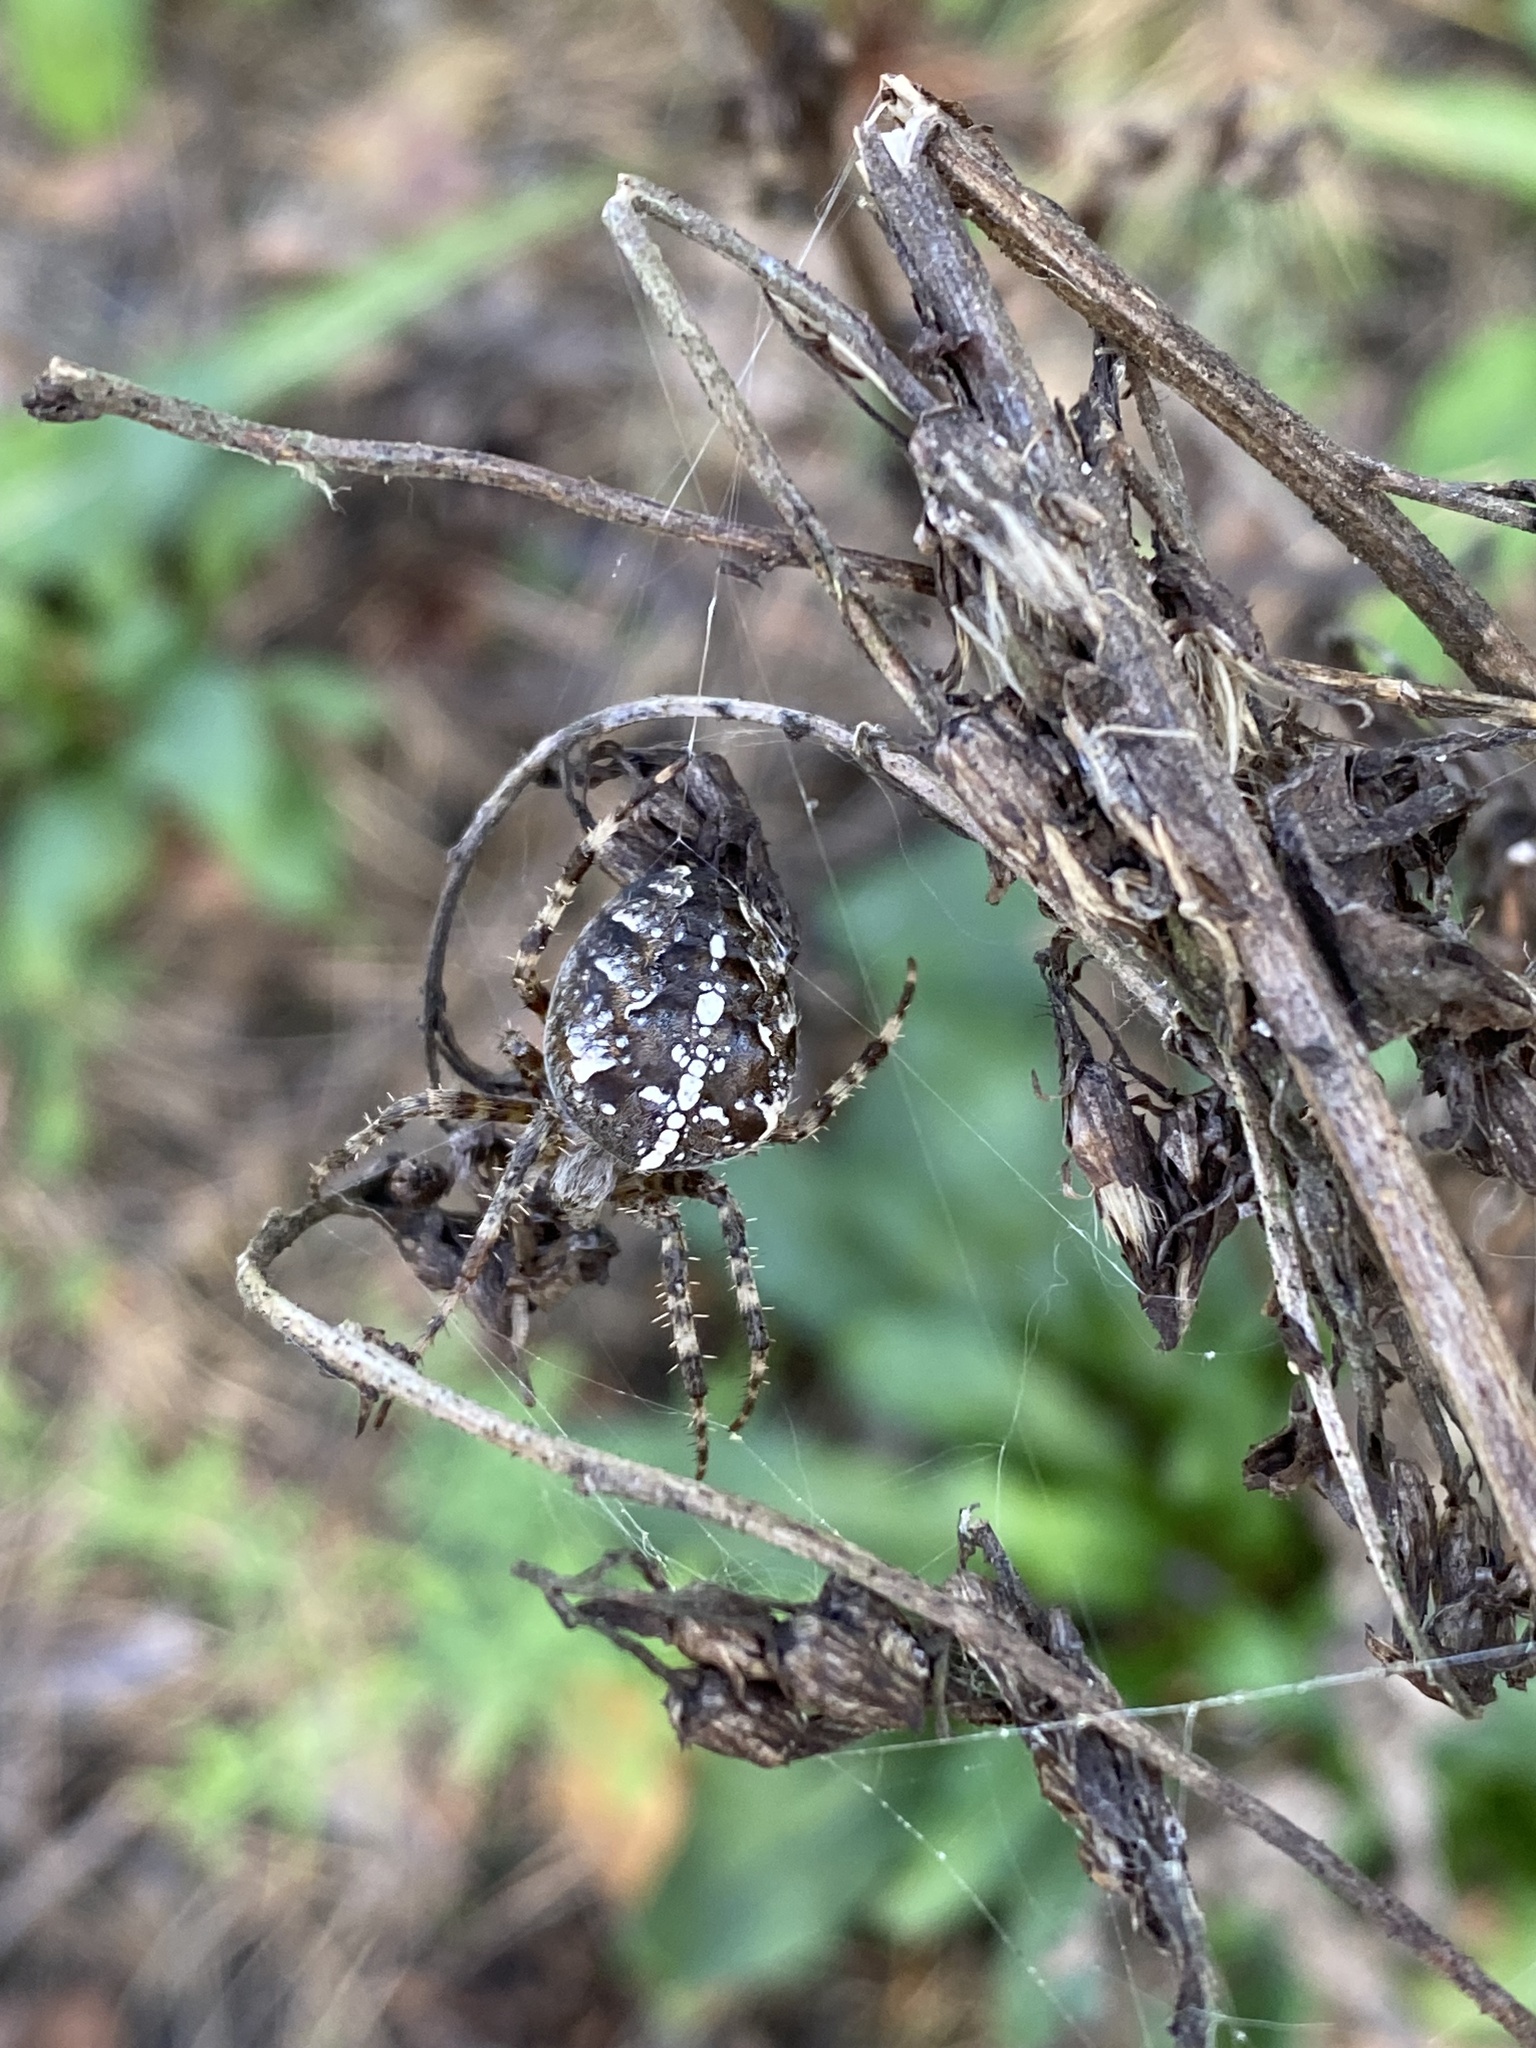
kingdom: Animalia
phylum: Arthropoda
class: Arachnida
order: Araneae
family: Araneidae
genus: Araneus
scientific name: Araneus diadematus
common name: Cross orbweaver
